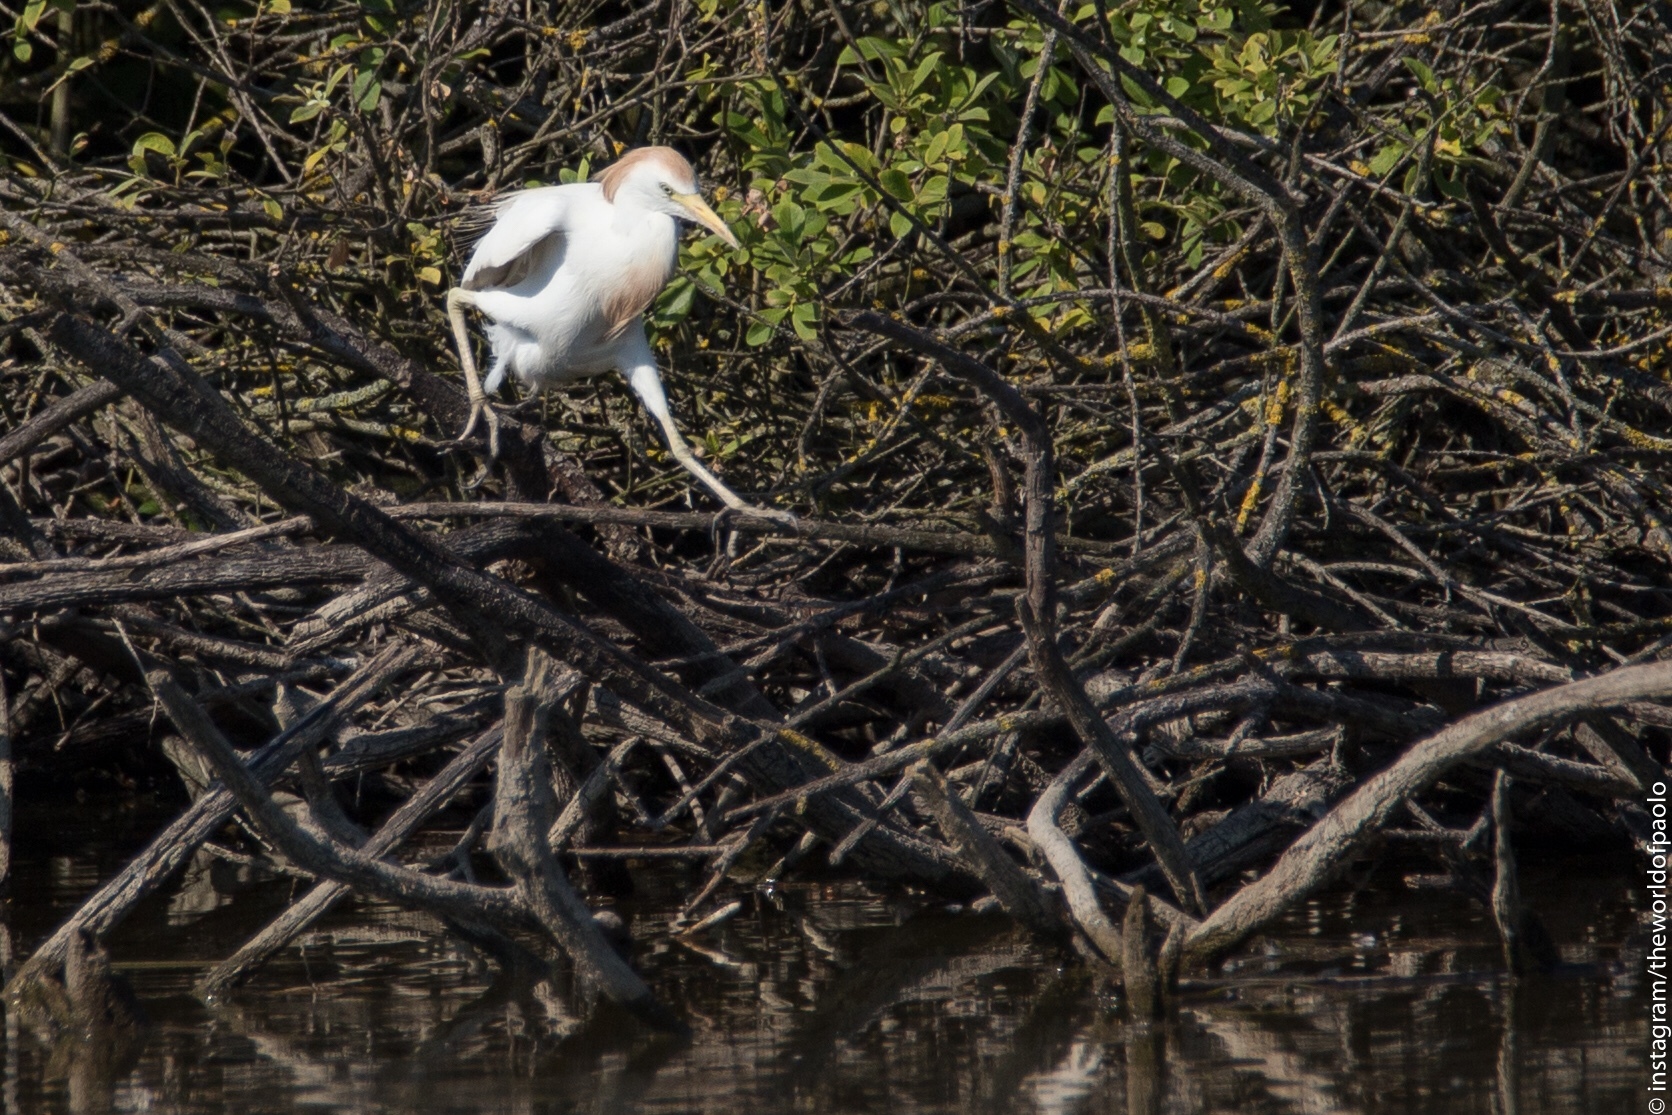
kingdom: Animalia
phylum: Chordata
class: Aves
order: Pelecaniformes
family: Ardeidae
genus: Bubulcus
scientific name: Bubulcus ibis
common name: Cattle egret
